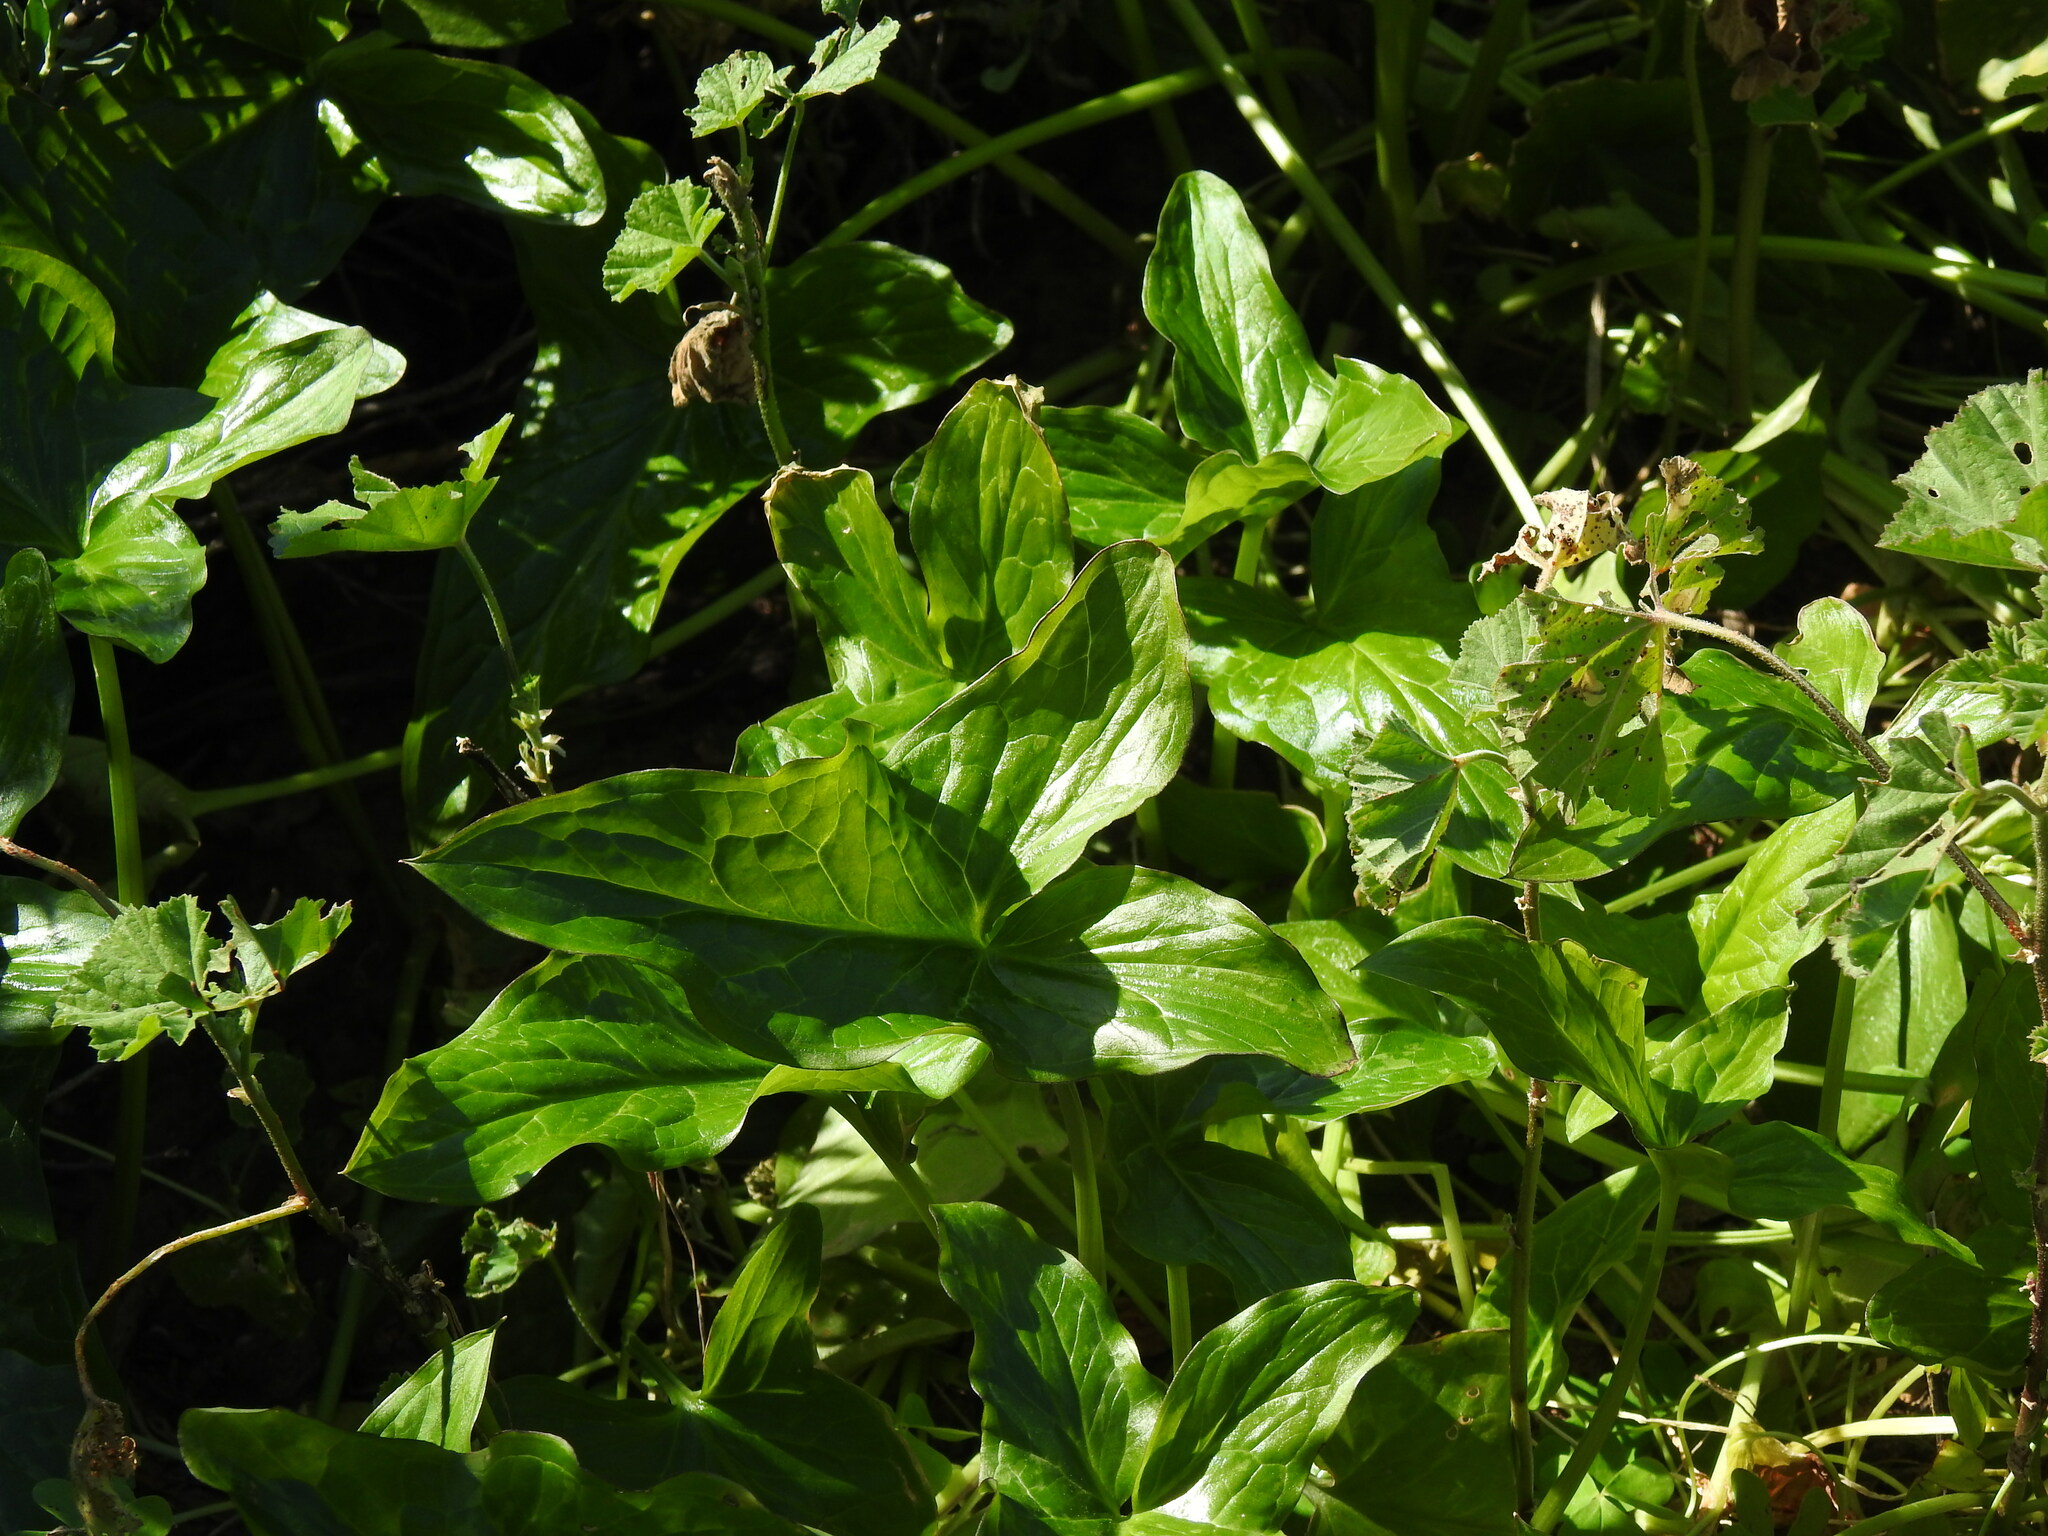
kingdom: Plantae
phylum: Tracheophyta
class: Liliopsida
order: Alismatales
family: Araceae
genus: Arum
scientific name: Arum italicum
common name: Italian lords-and-ladies
